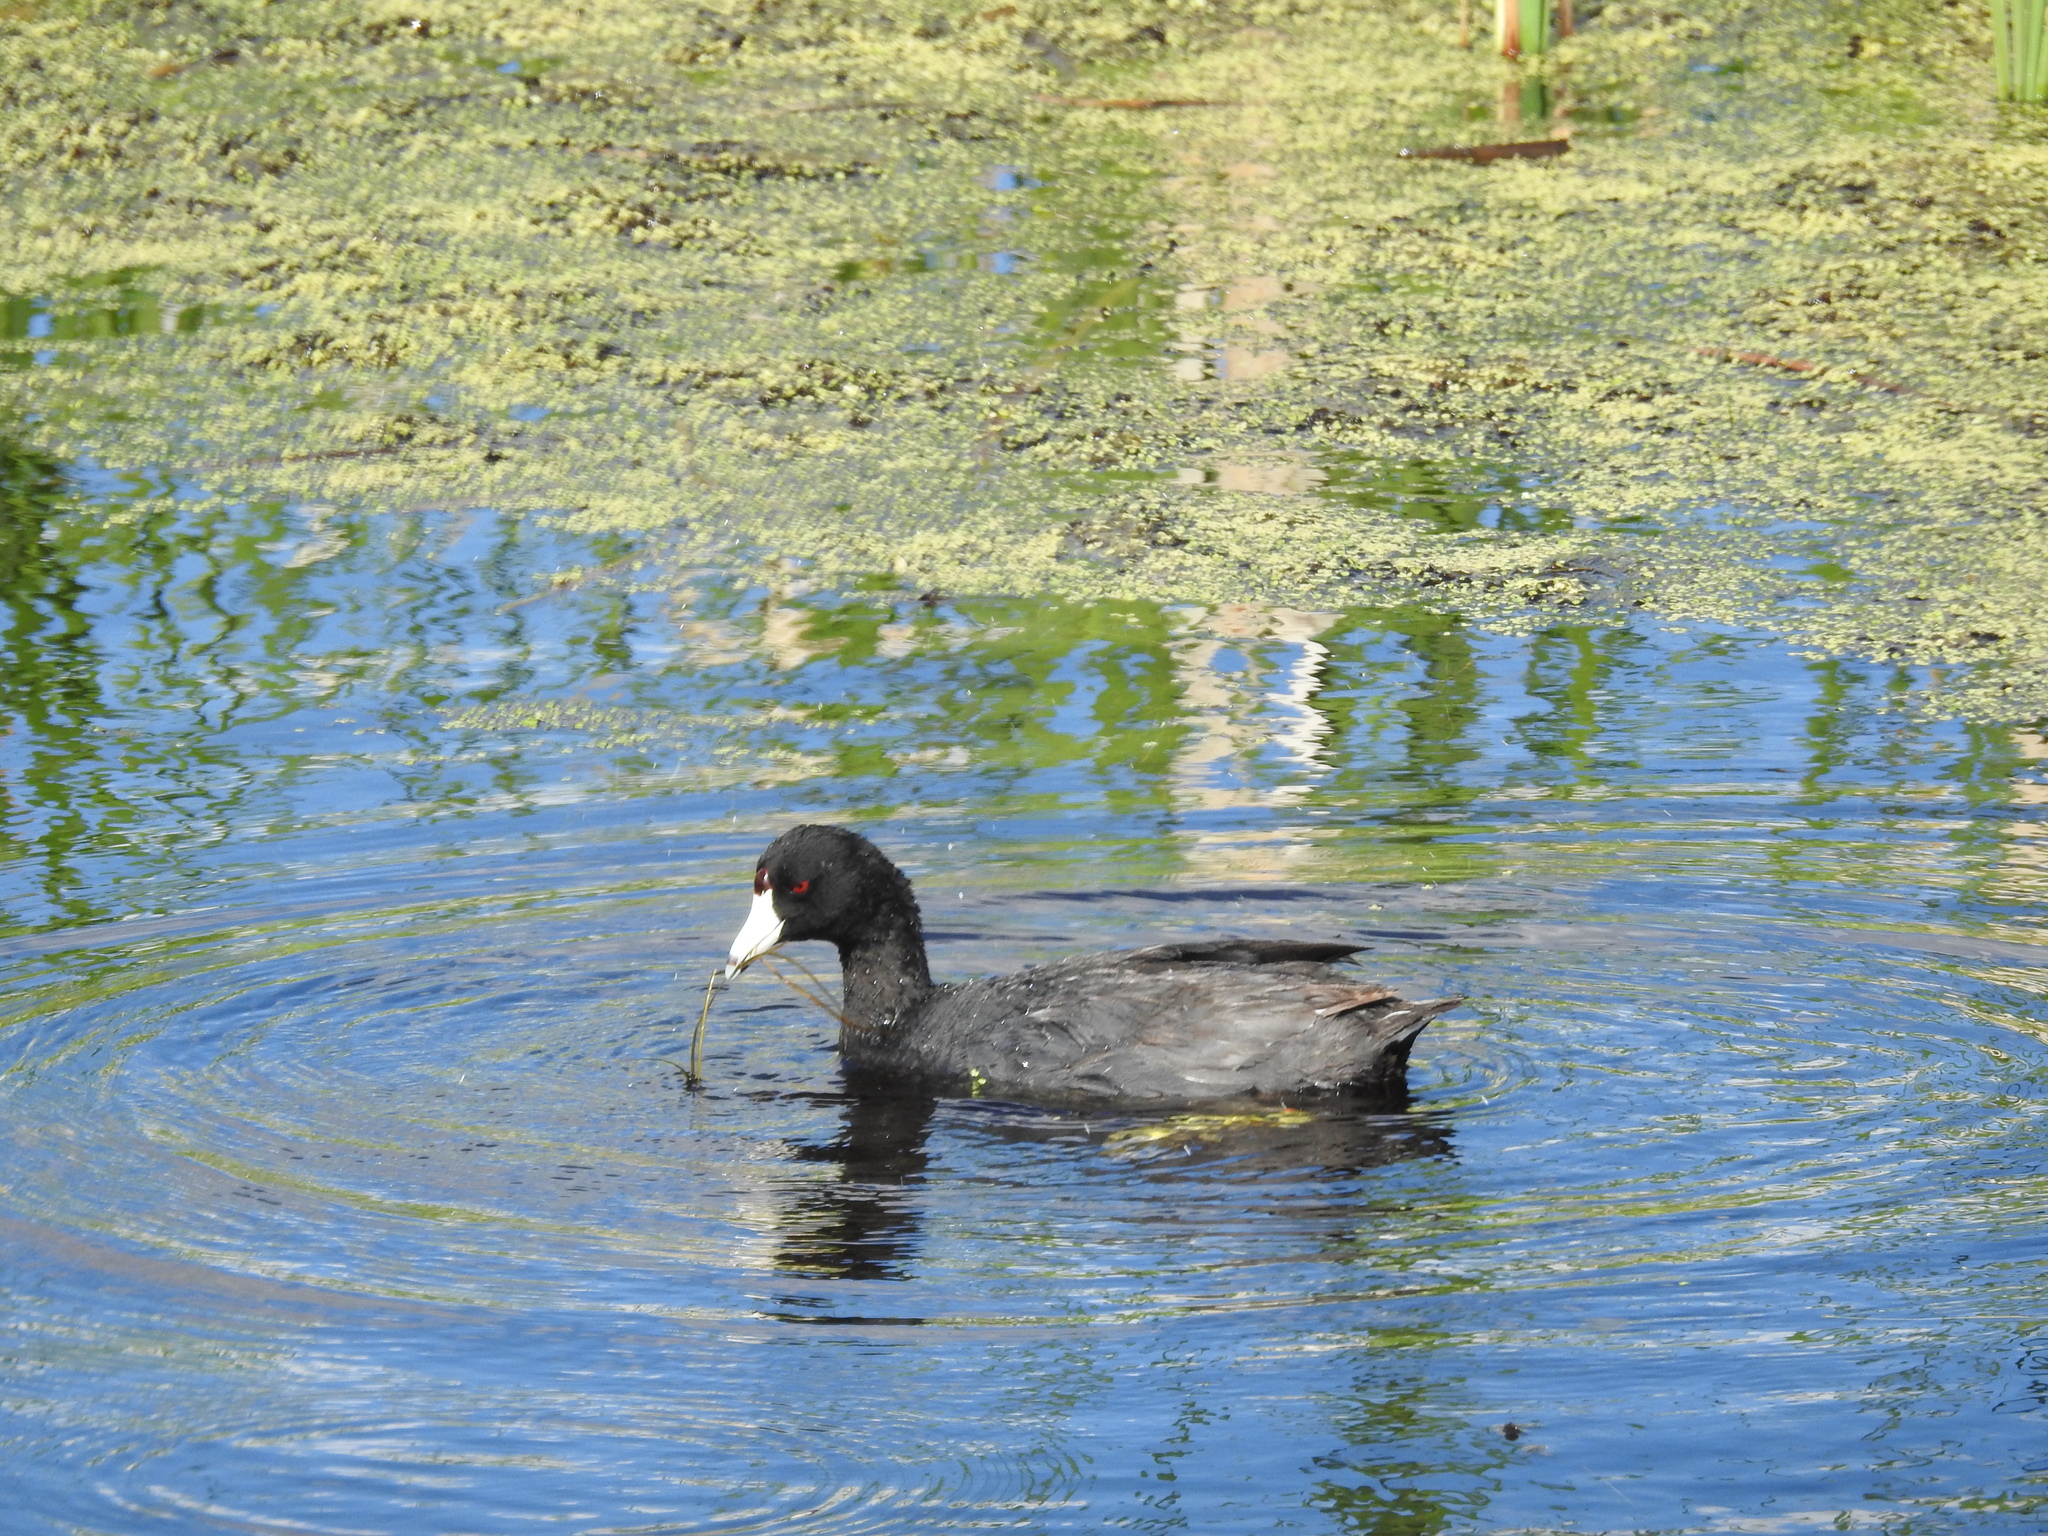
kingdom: Animalia
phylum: Chordata
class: Aves
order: Gruiformes
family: Rallidae
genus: Fulica
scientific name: Fulica americana
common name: American coot
